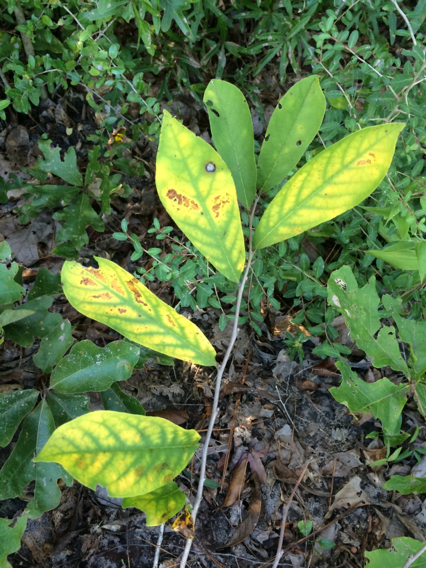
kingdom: Plantae
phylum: Tracheophyta
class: Magnoliopsida
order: Magnoliales
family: Annonaceae
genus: Asimina
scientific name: Asimina parviflora
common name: Dwarf pawpaw
